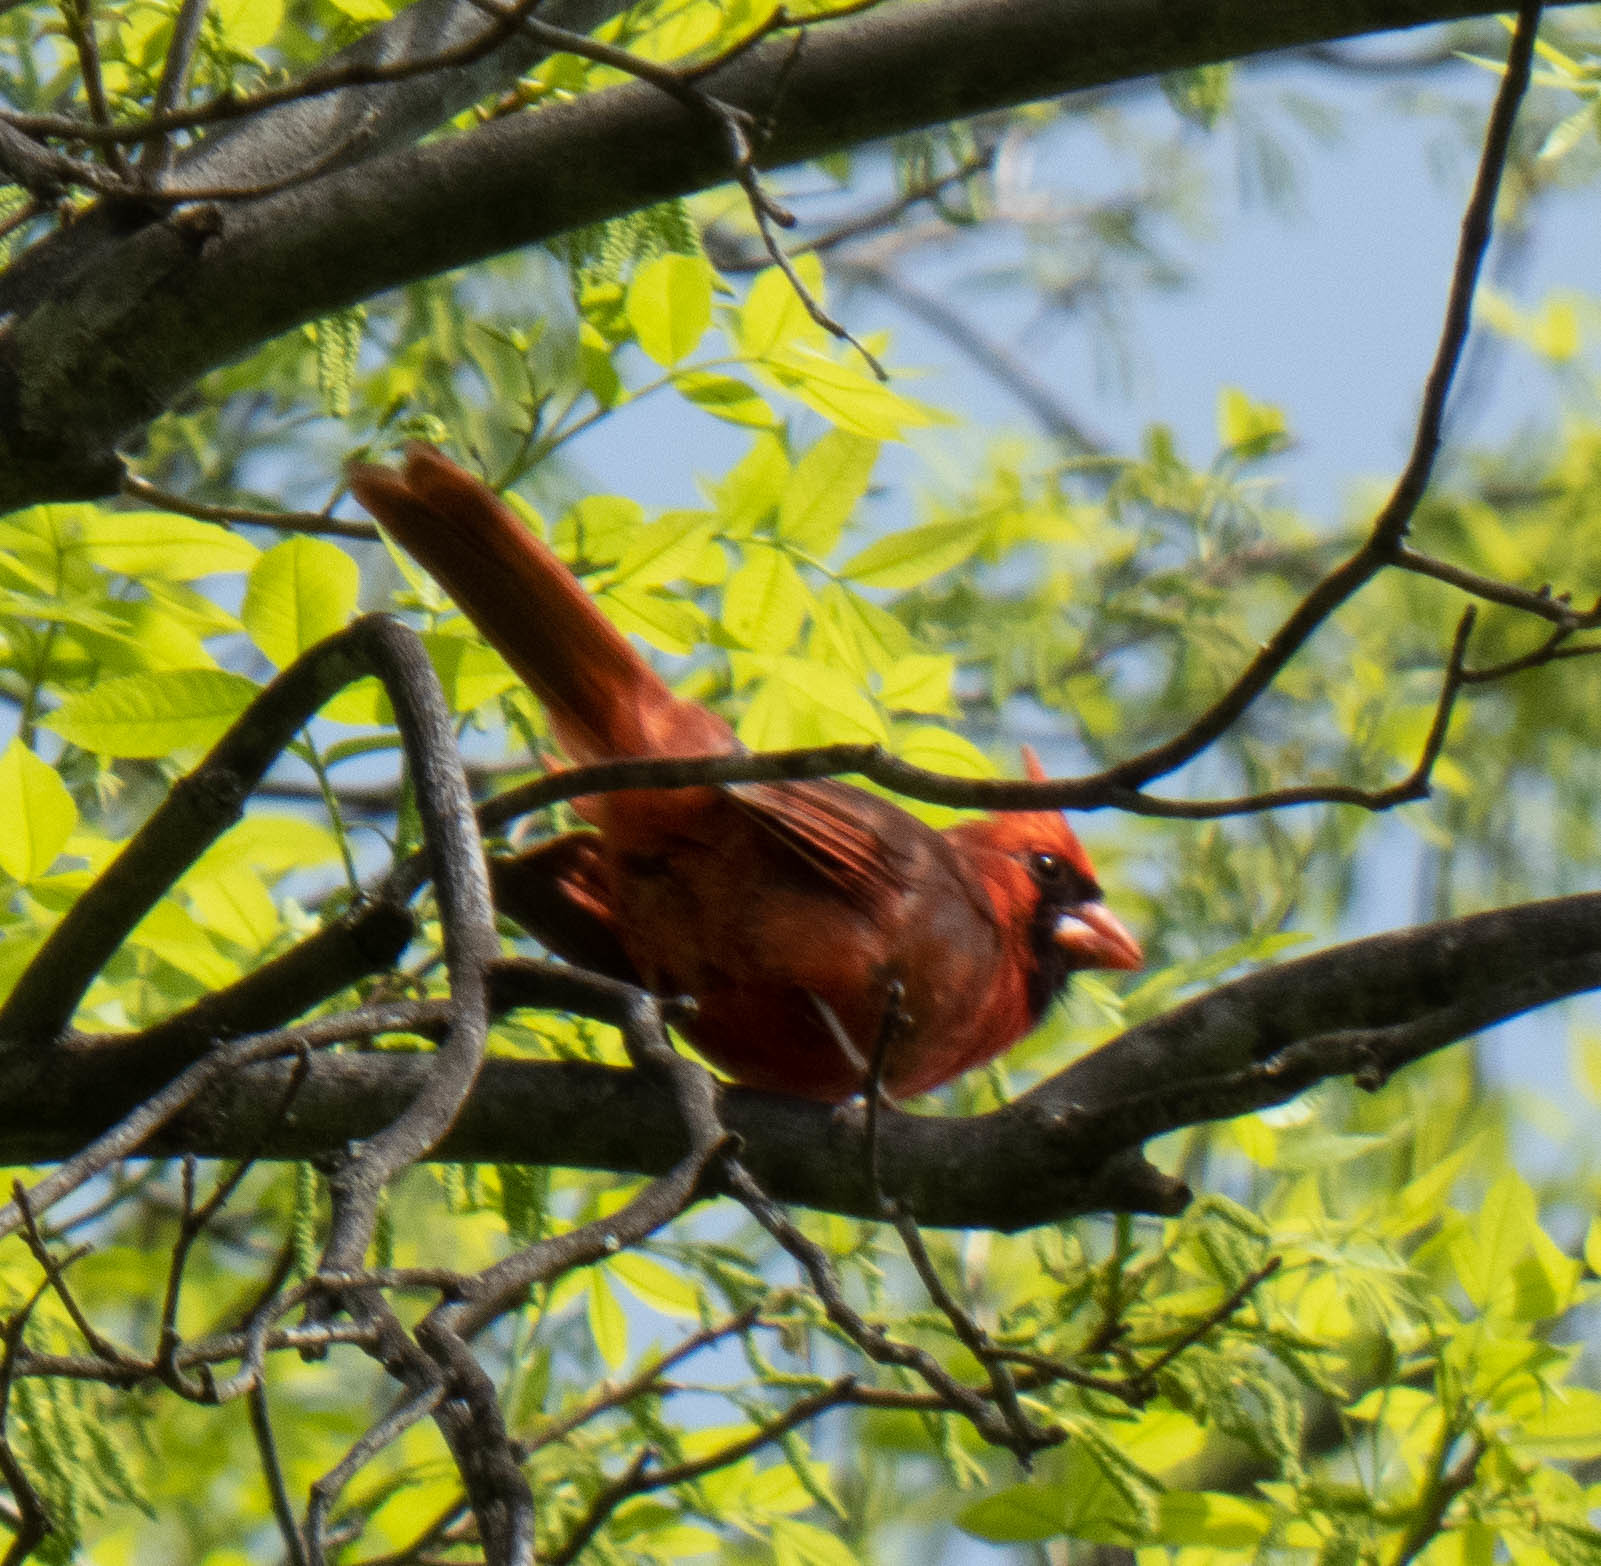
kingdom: Animalia
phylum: Chordata
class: Aves
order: Passeriformes
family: Cardinalidae
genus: Cardinalis
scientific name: Cardinalis cardinalis
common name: Northern cardinal
